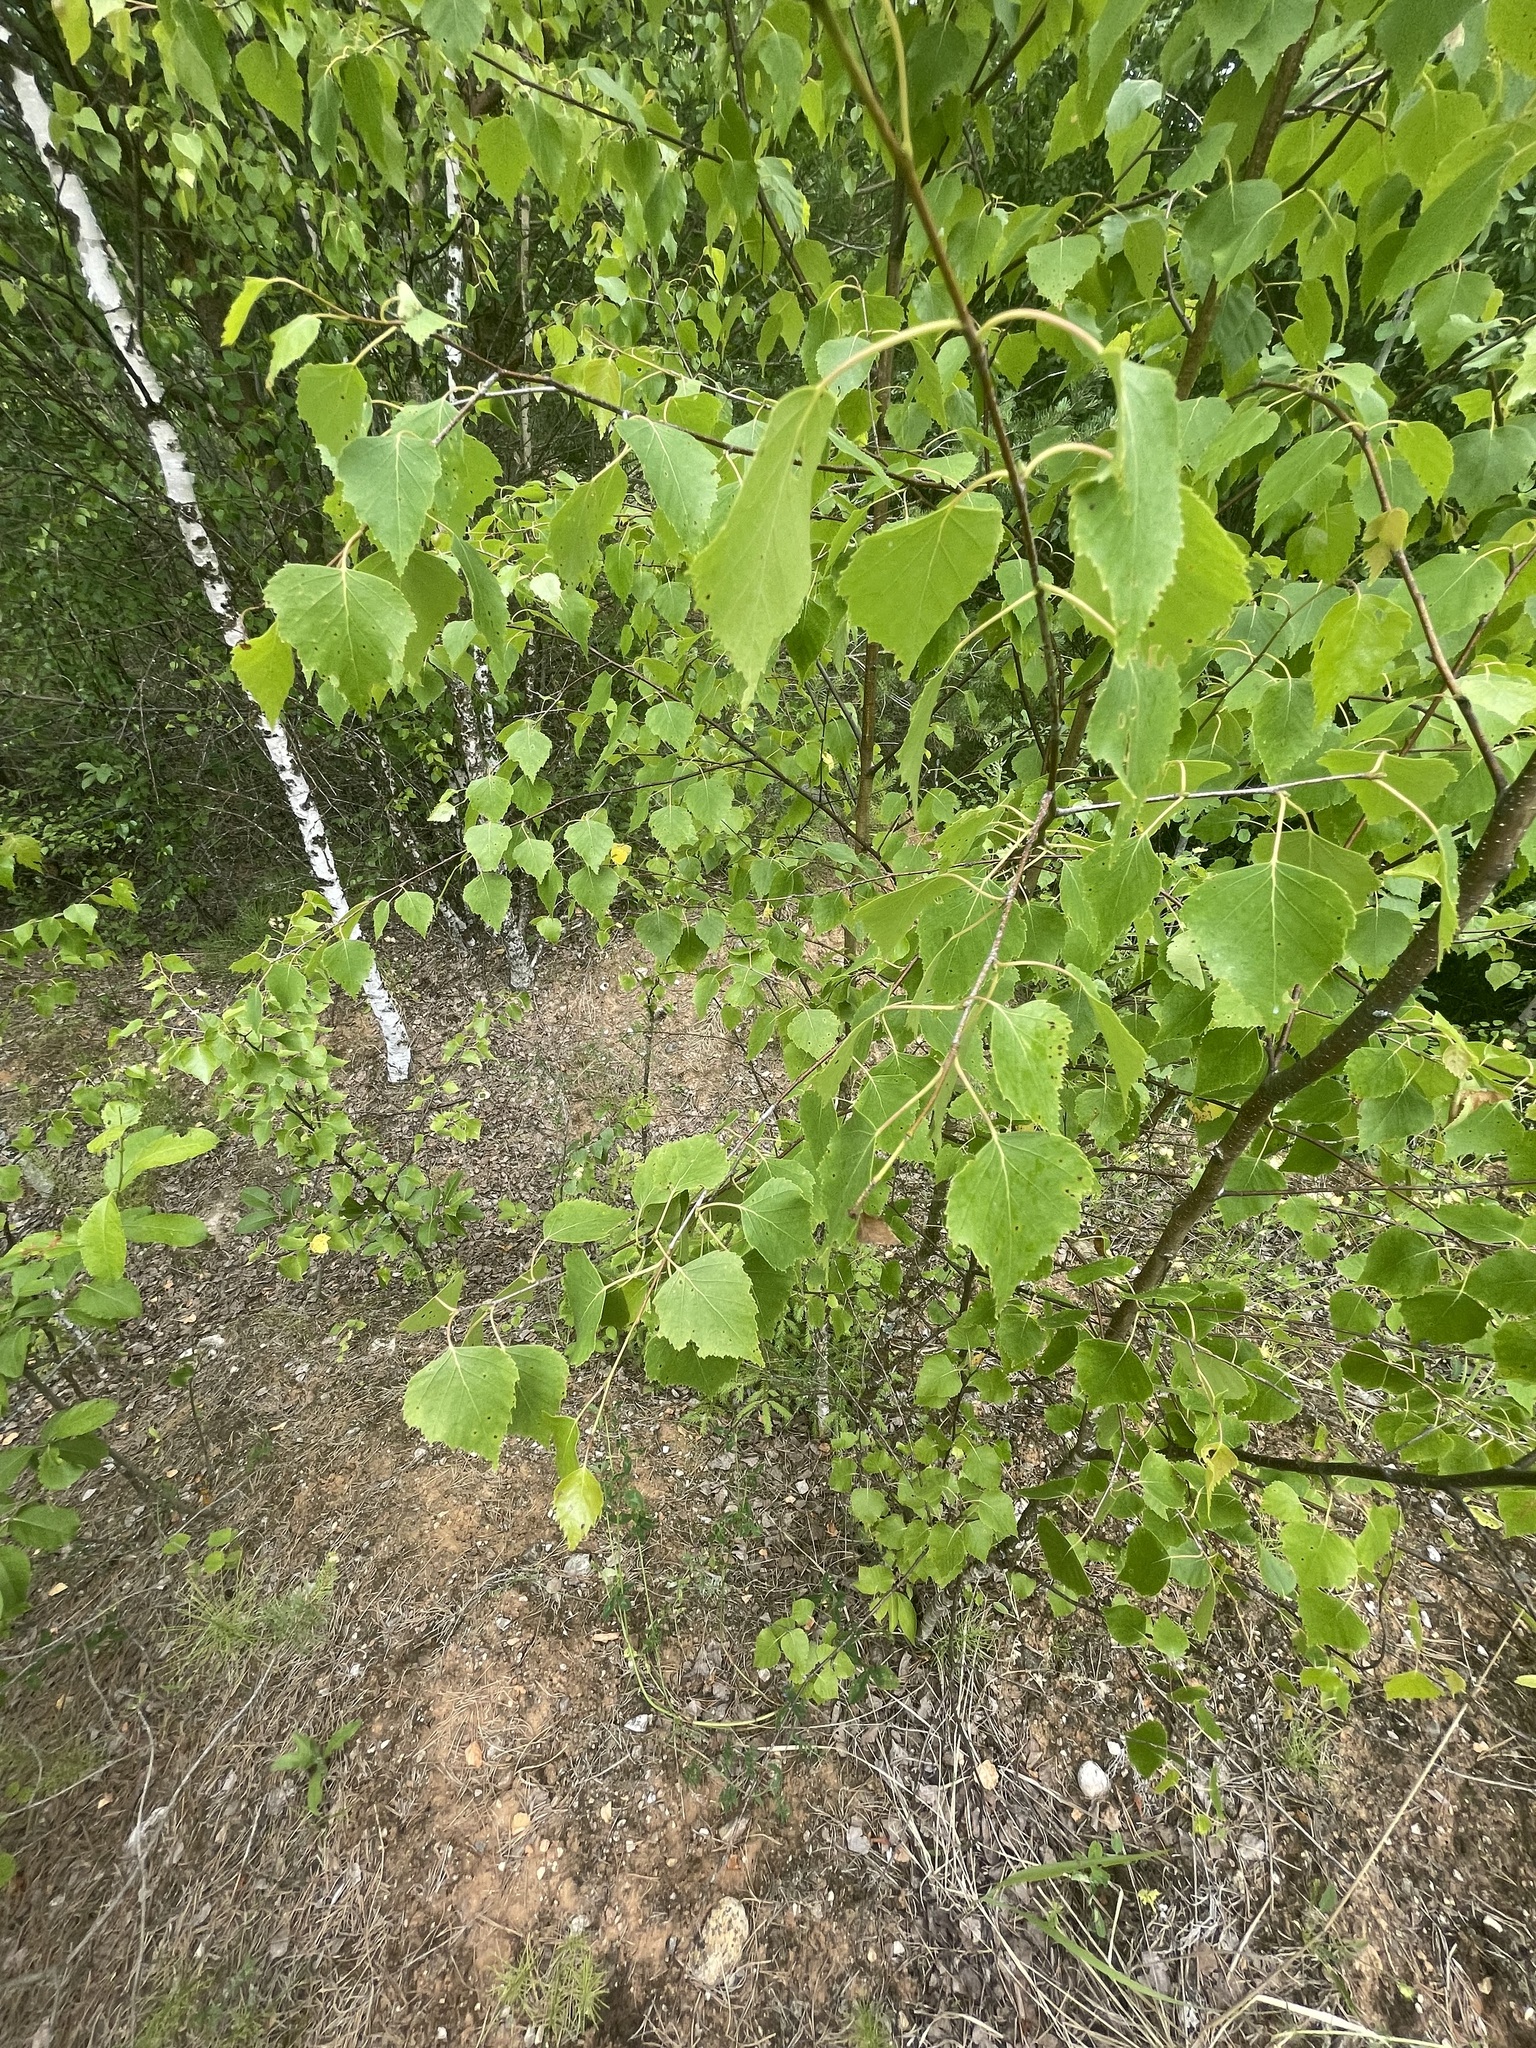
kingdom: Plantae
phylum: Tracheophyta
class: Magnoliopsida
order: Fagales
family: Betulaceae
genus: Betula
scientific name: Betula pendula
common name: Silver birch
